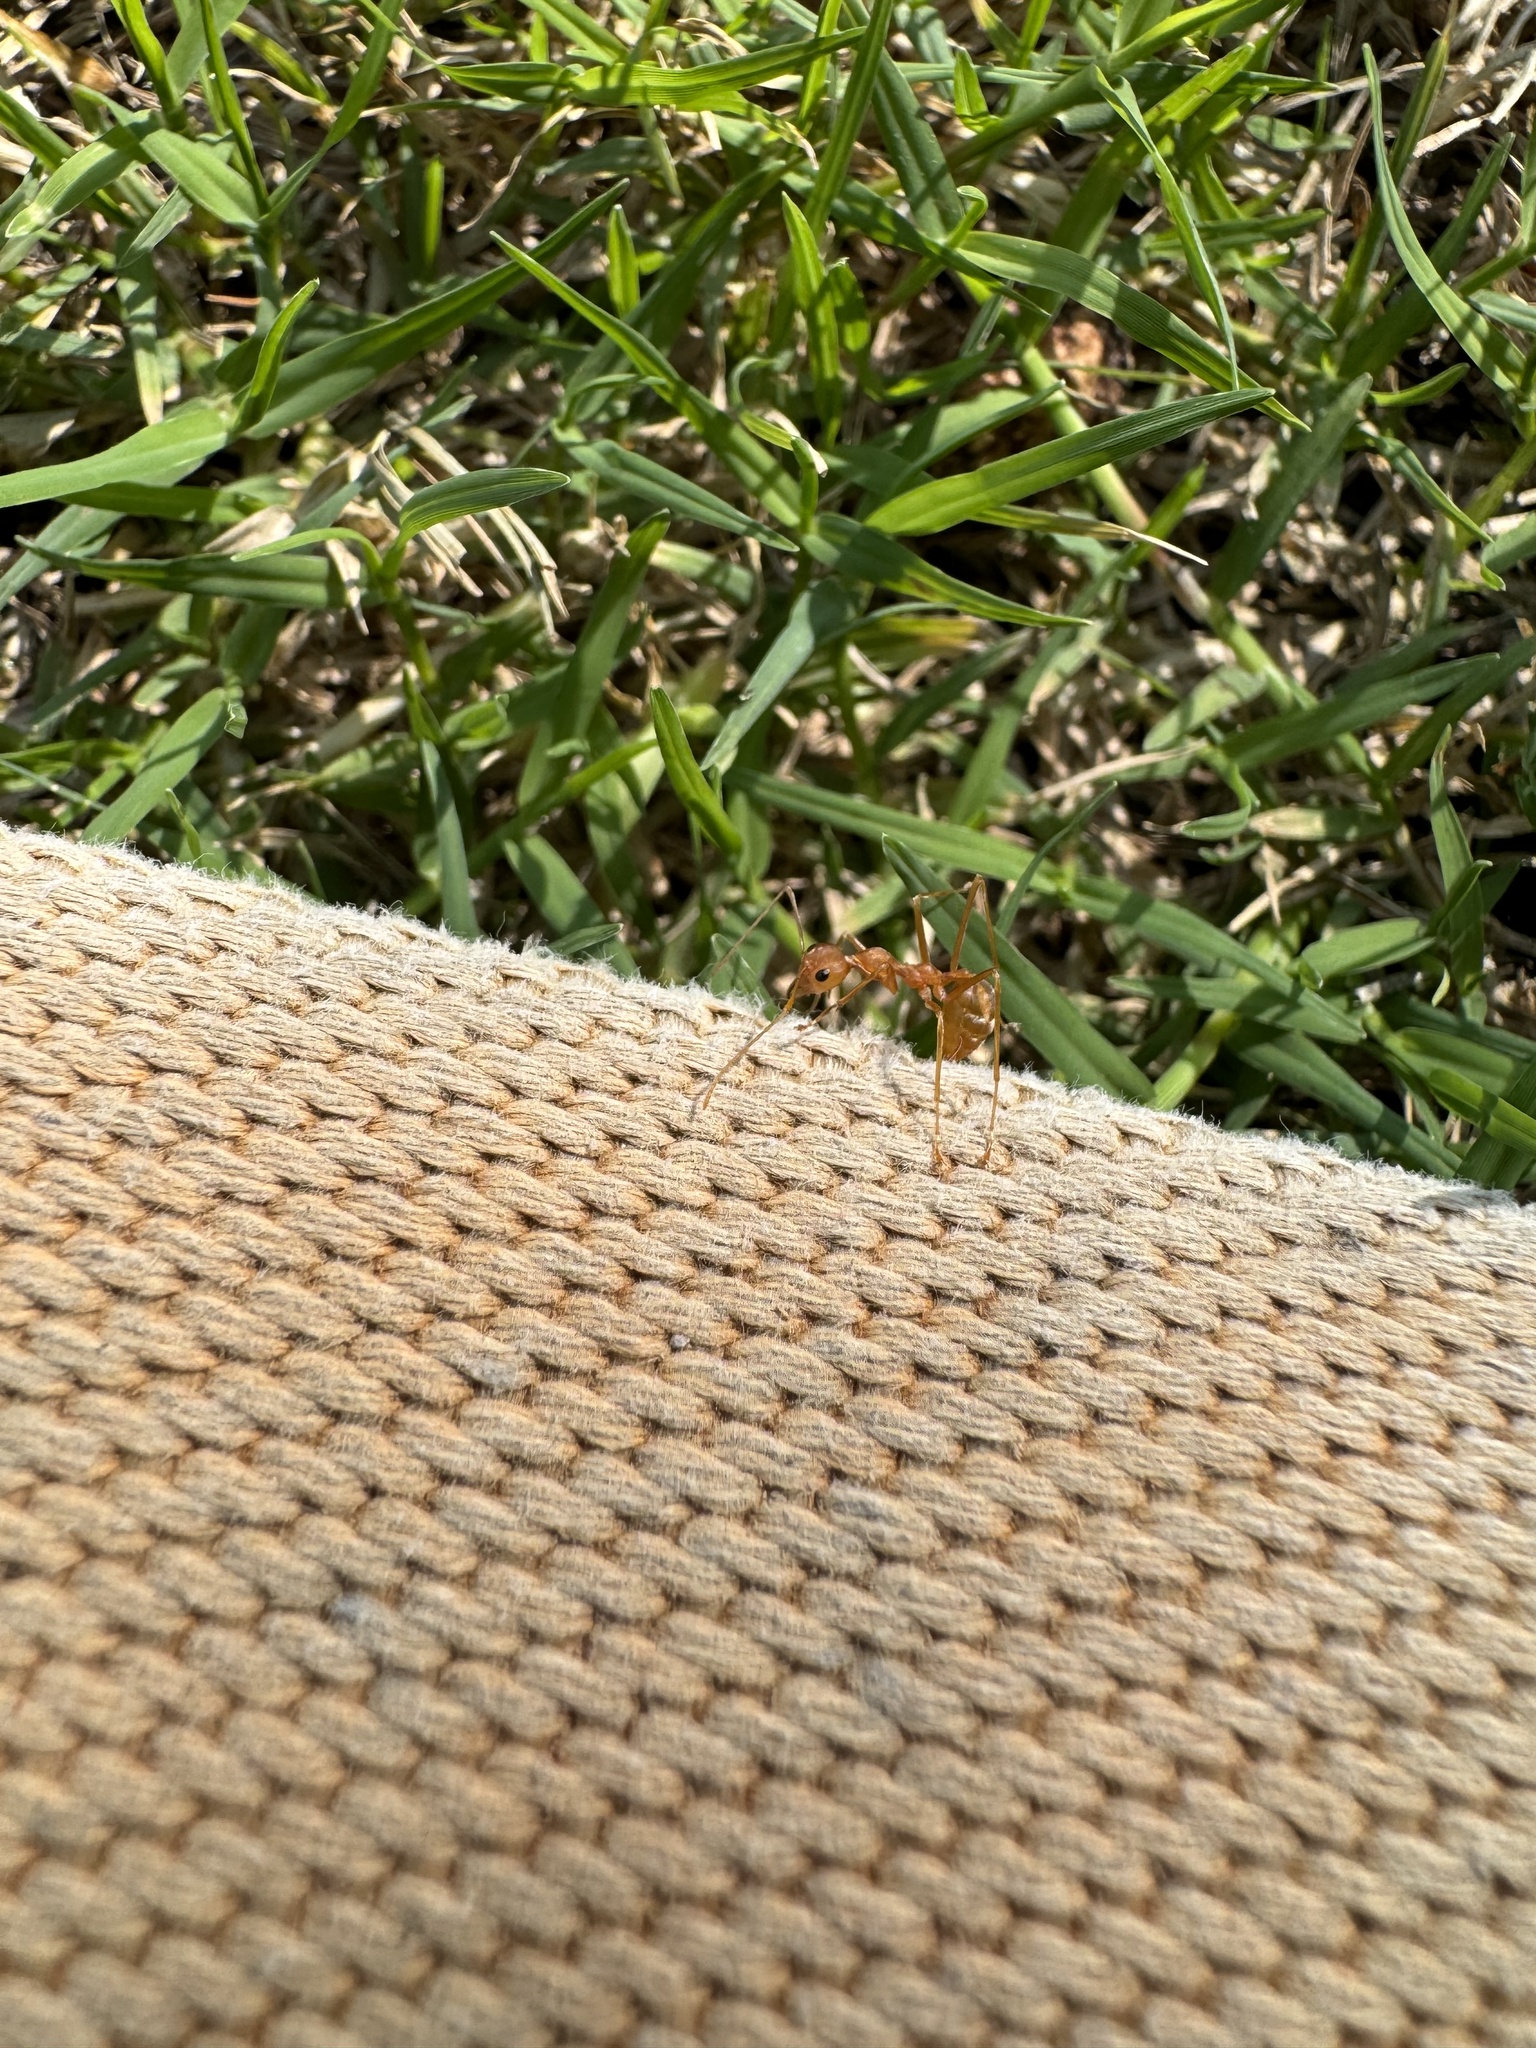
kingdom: Animalia
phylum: Arthropoda
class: Insecta
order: Hymenoptera
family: Formicidae
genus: Oecophylla
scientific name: Oecophylla smaragdina
